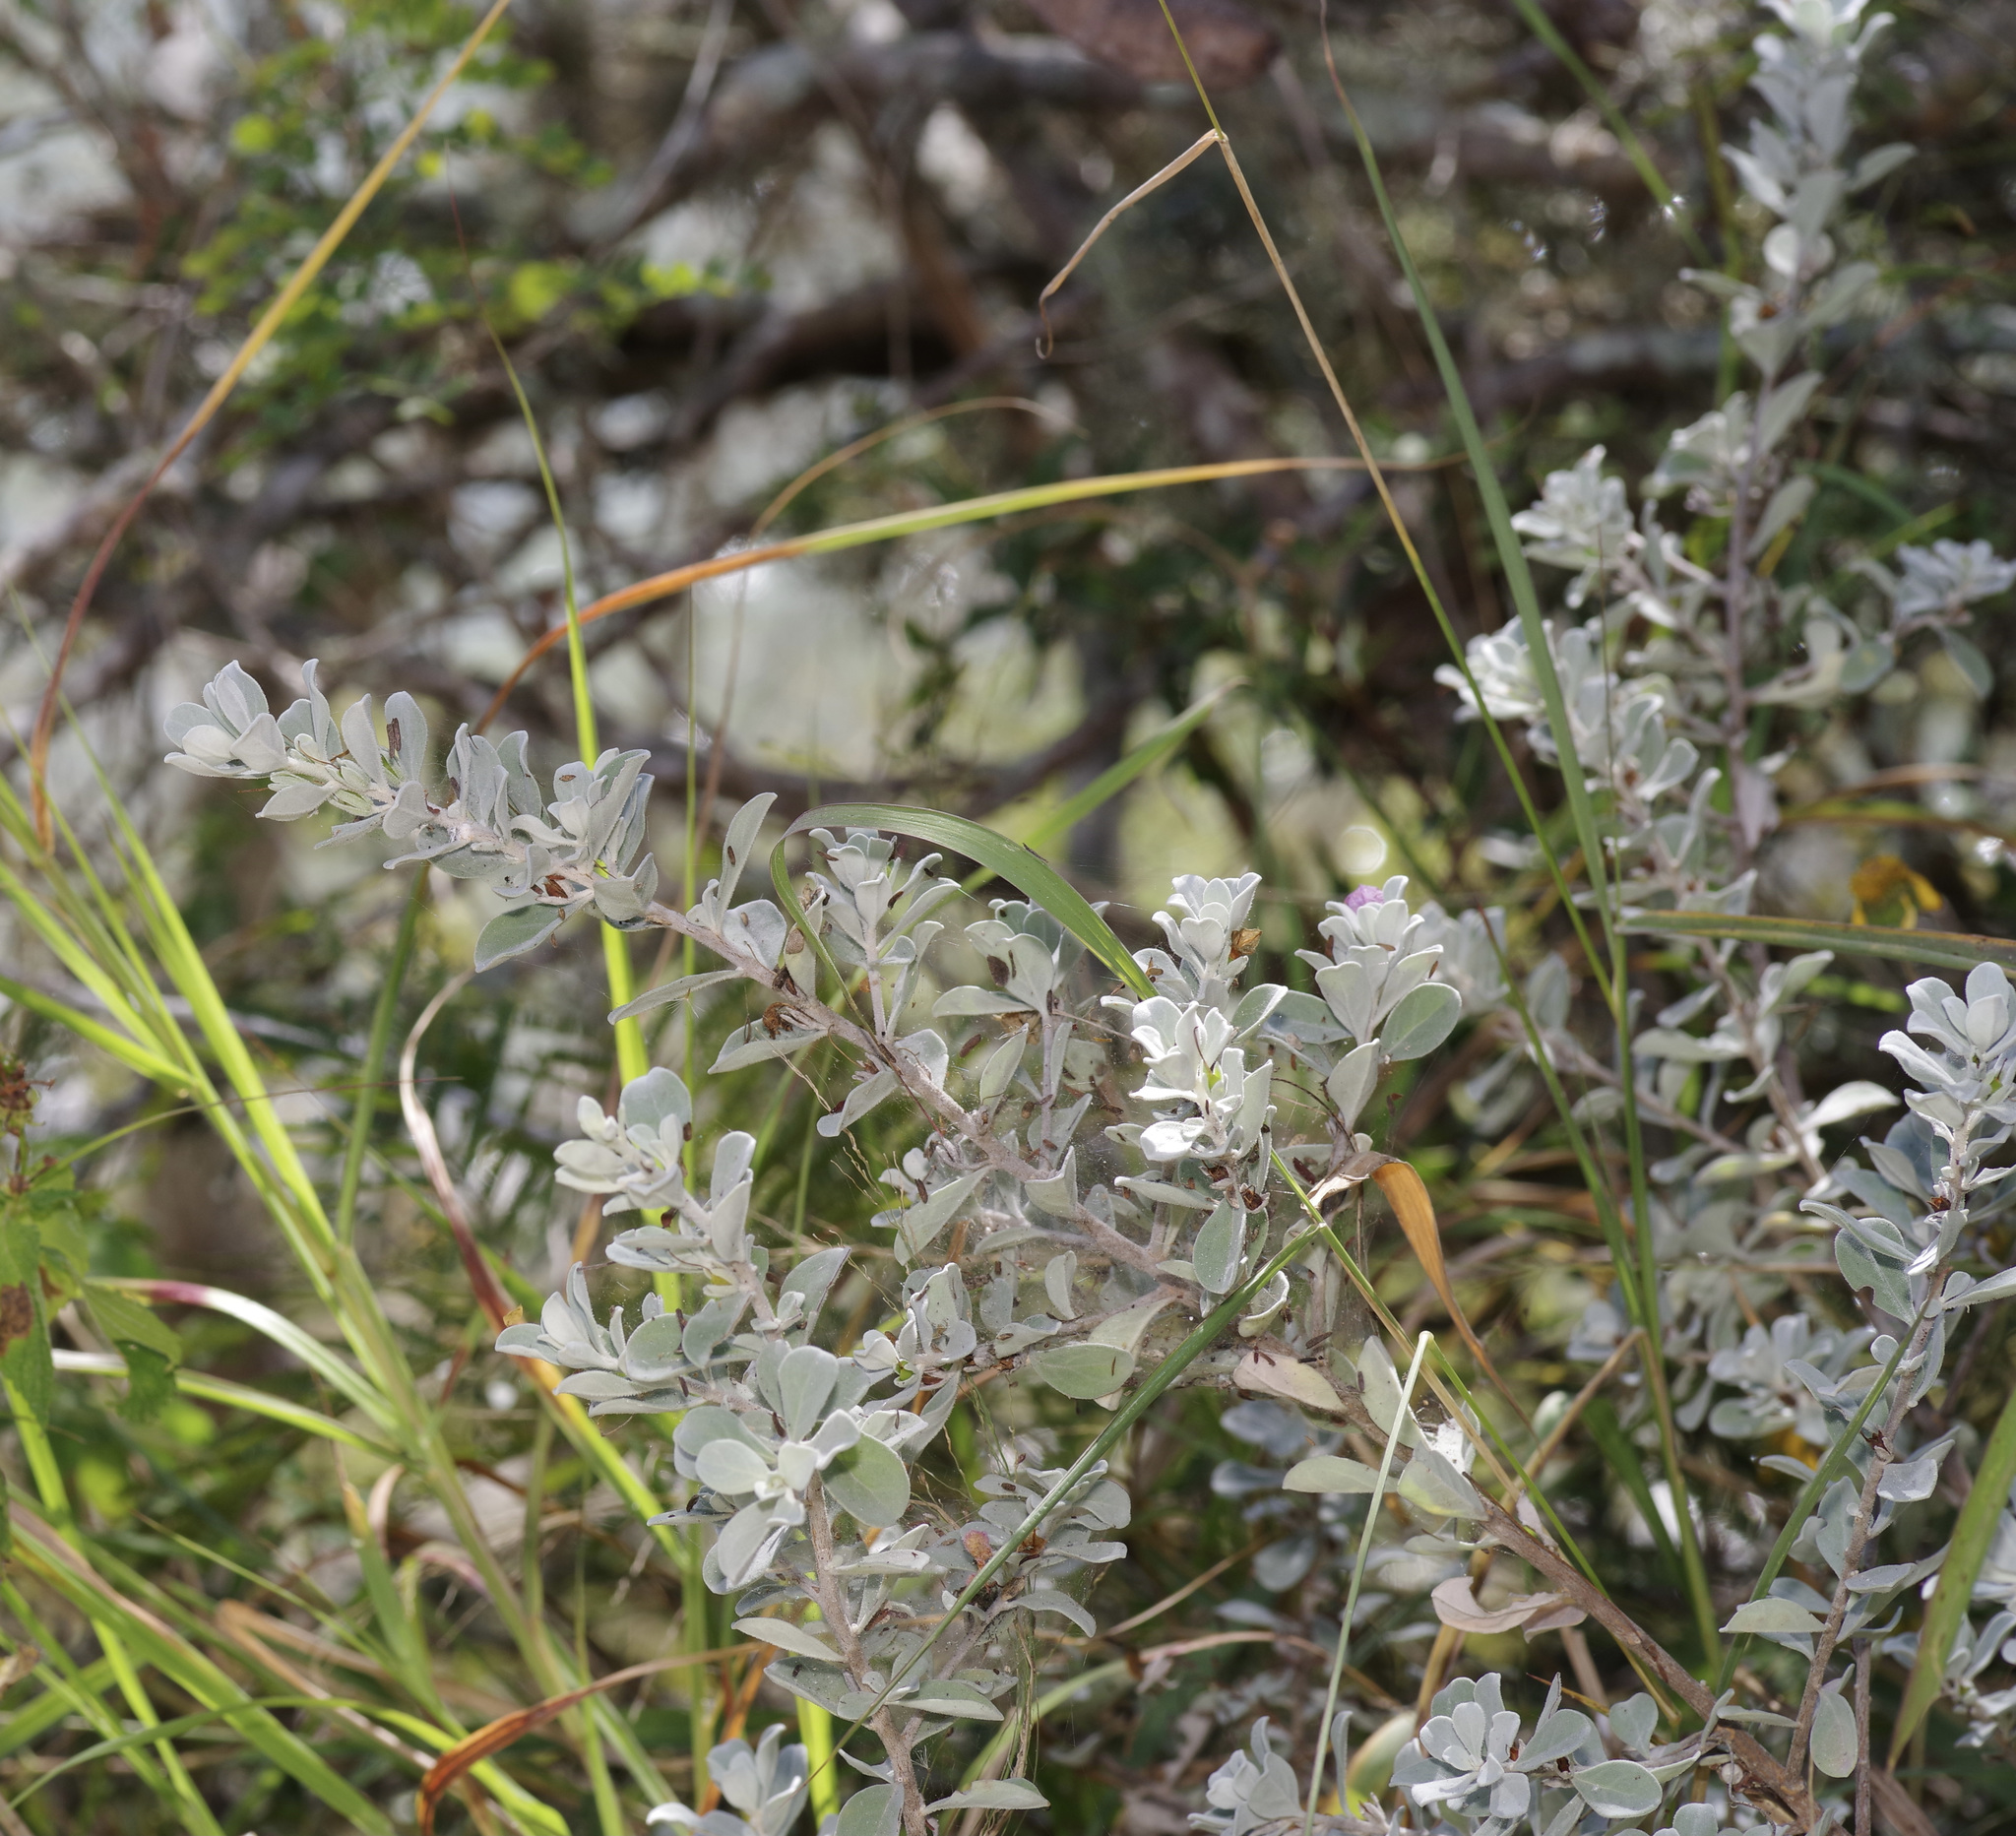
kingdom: Plantae
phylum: Tracheophyta
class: Magnoliopsida
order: Lamiales
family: Scrophulariaceae
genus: Leucophyllum
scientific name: Leucophyllum frutescens
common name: Texas silverleaf
